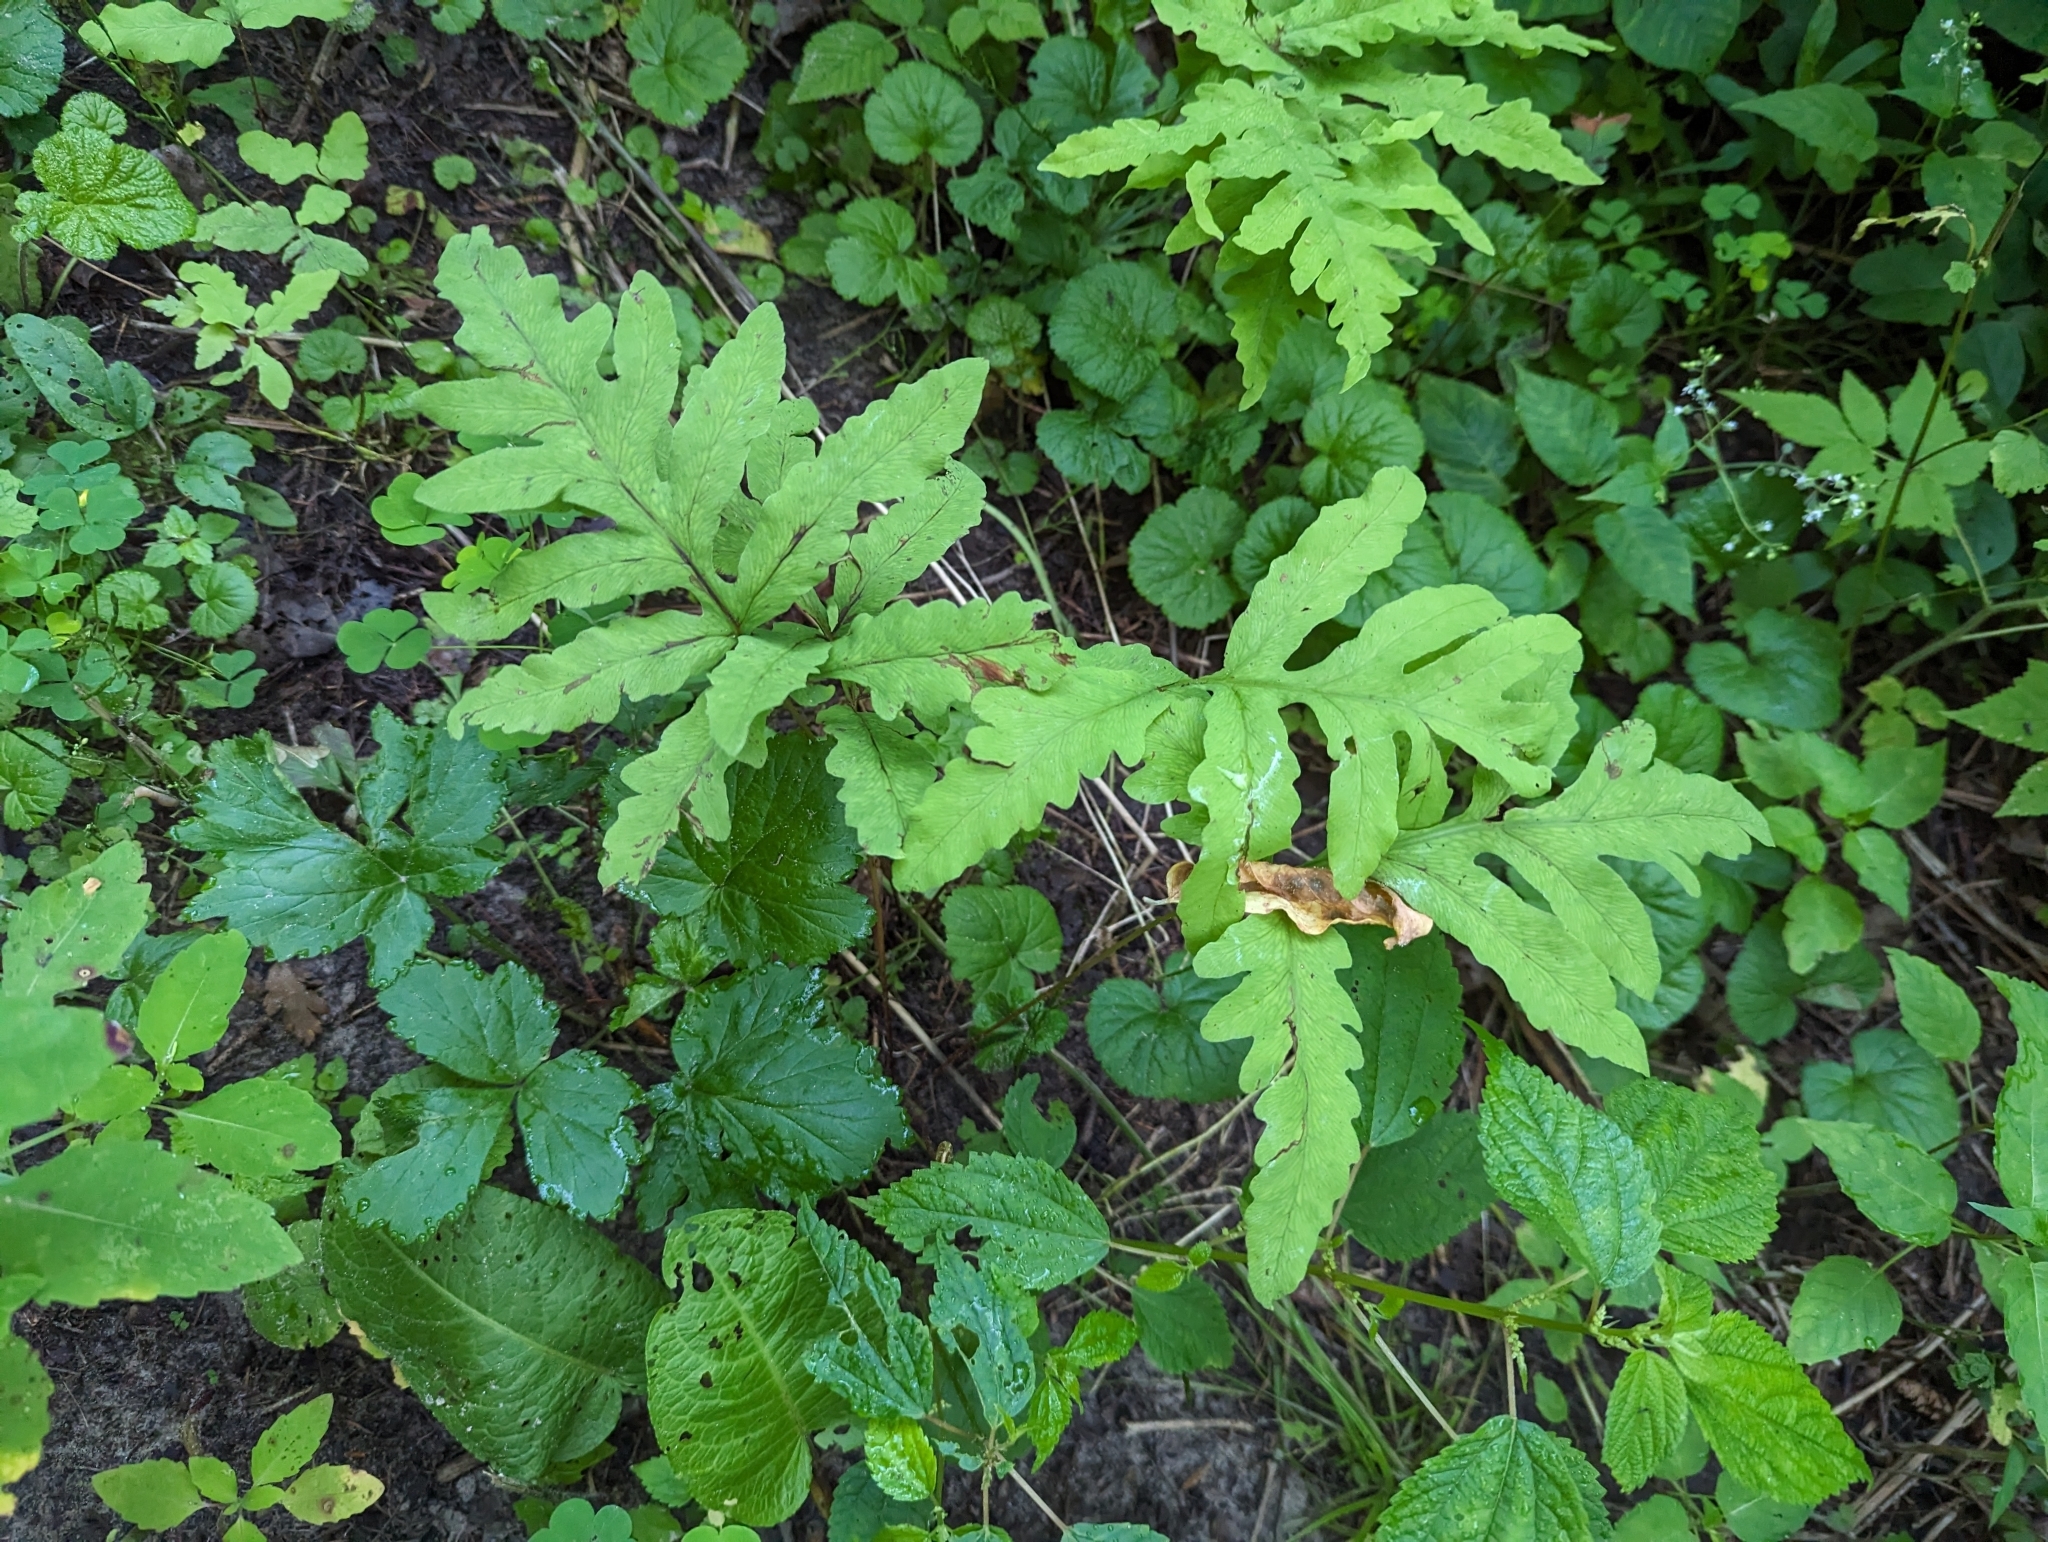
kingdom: Plantae
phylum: Tracheophyta
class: Polypodiopsida
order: Polypodiales
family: Onocleaceae
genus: Onoclea
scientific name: Onoclea sensibilis
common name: Sensitive fern
